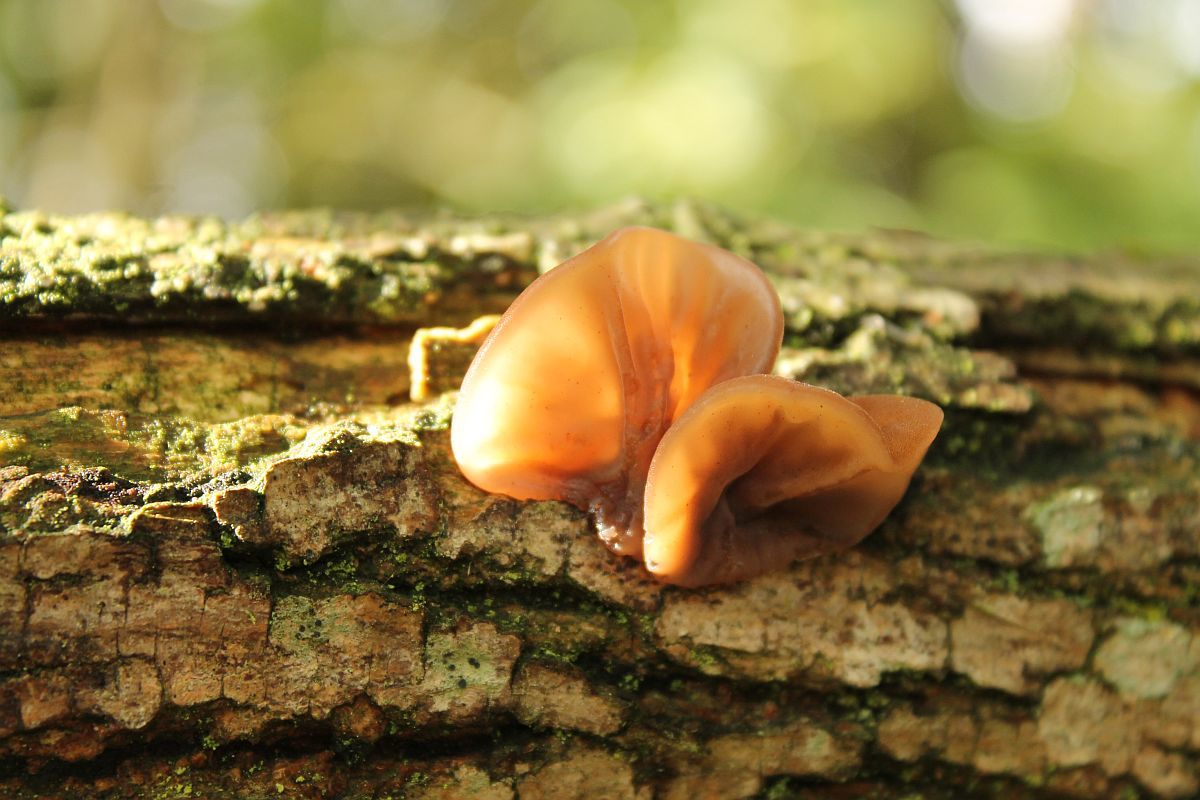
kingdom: Fungi
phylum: Basidiomycota
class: Agaricomycetes
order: Auriculariales
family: Auriculariaceae
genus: Auricularia
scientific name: Auricularia auricula-judae
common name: Jelly ear
